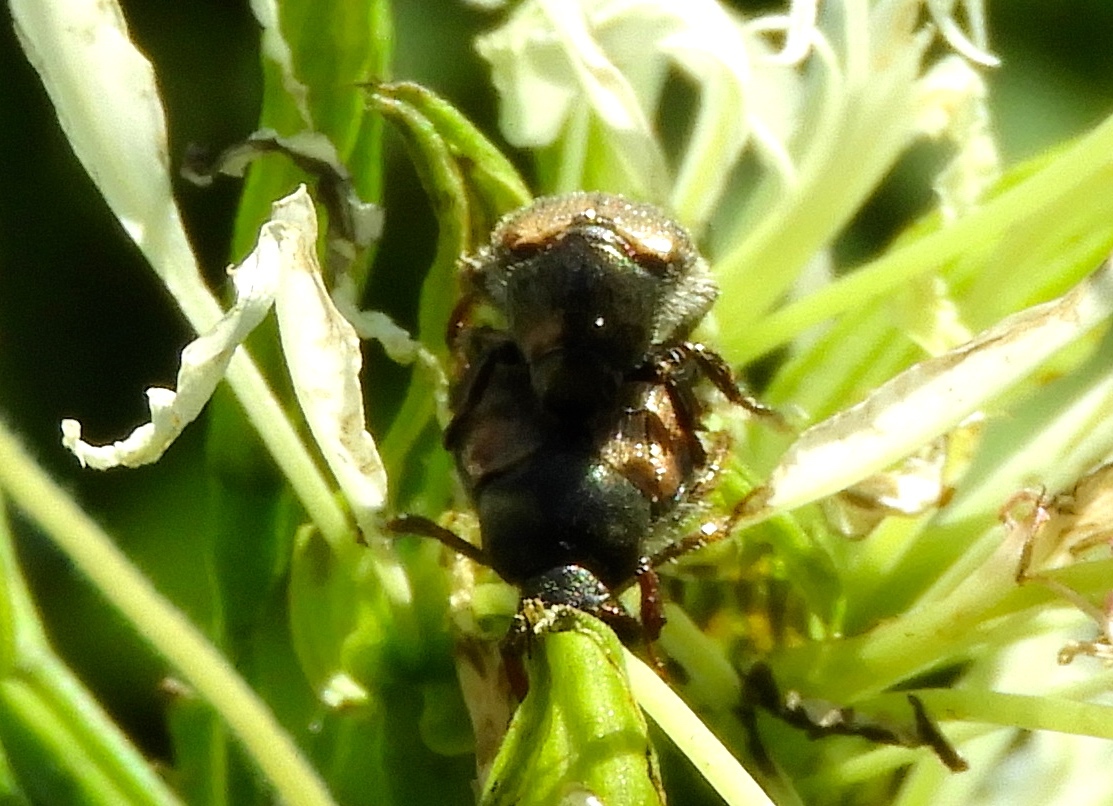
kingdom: Animalia
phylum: Arthropoda
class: Insecta
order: Coleoptera
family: Scarabaeidae
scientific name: Scarabaeidae
